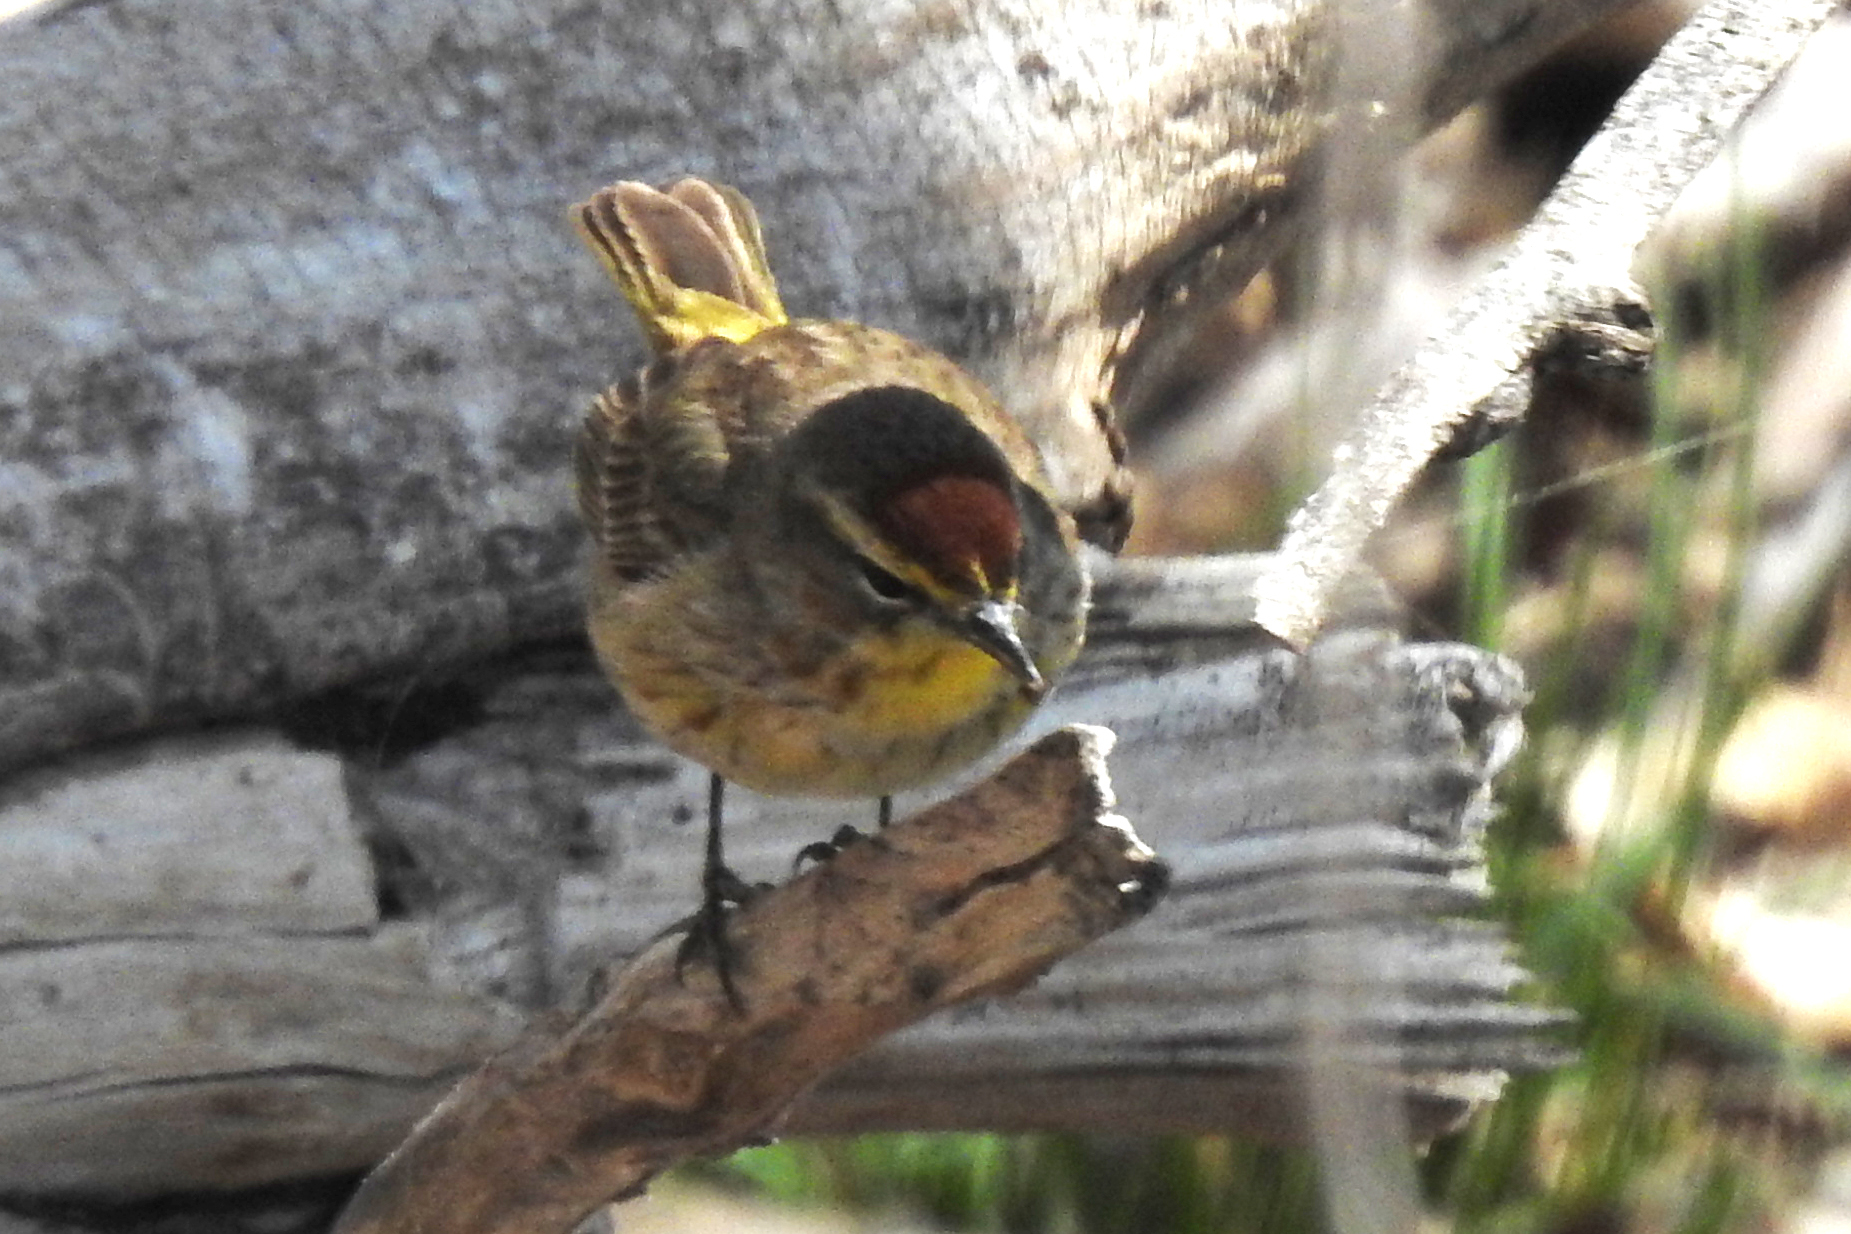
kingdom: Animalia
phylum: Chordata
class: Aves
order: Passeriformes
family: Parulidae
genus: Setophaga
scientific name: Setophaga palmarum
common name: Palm warbler
